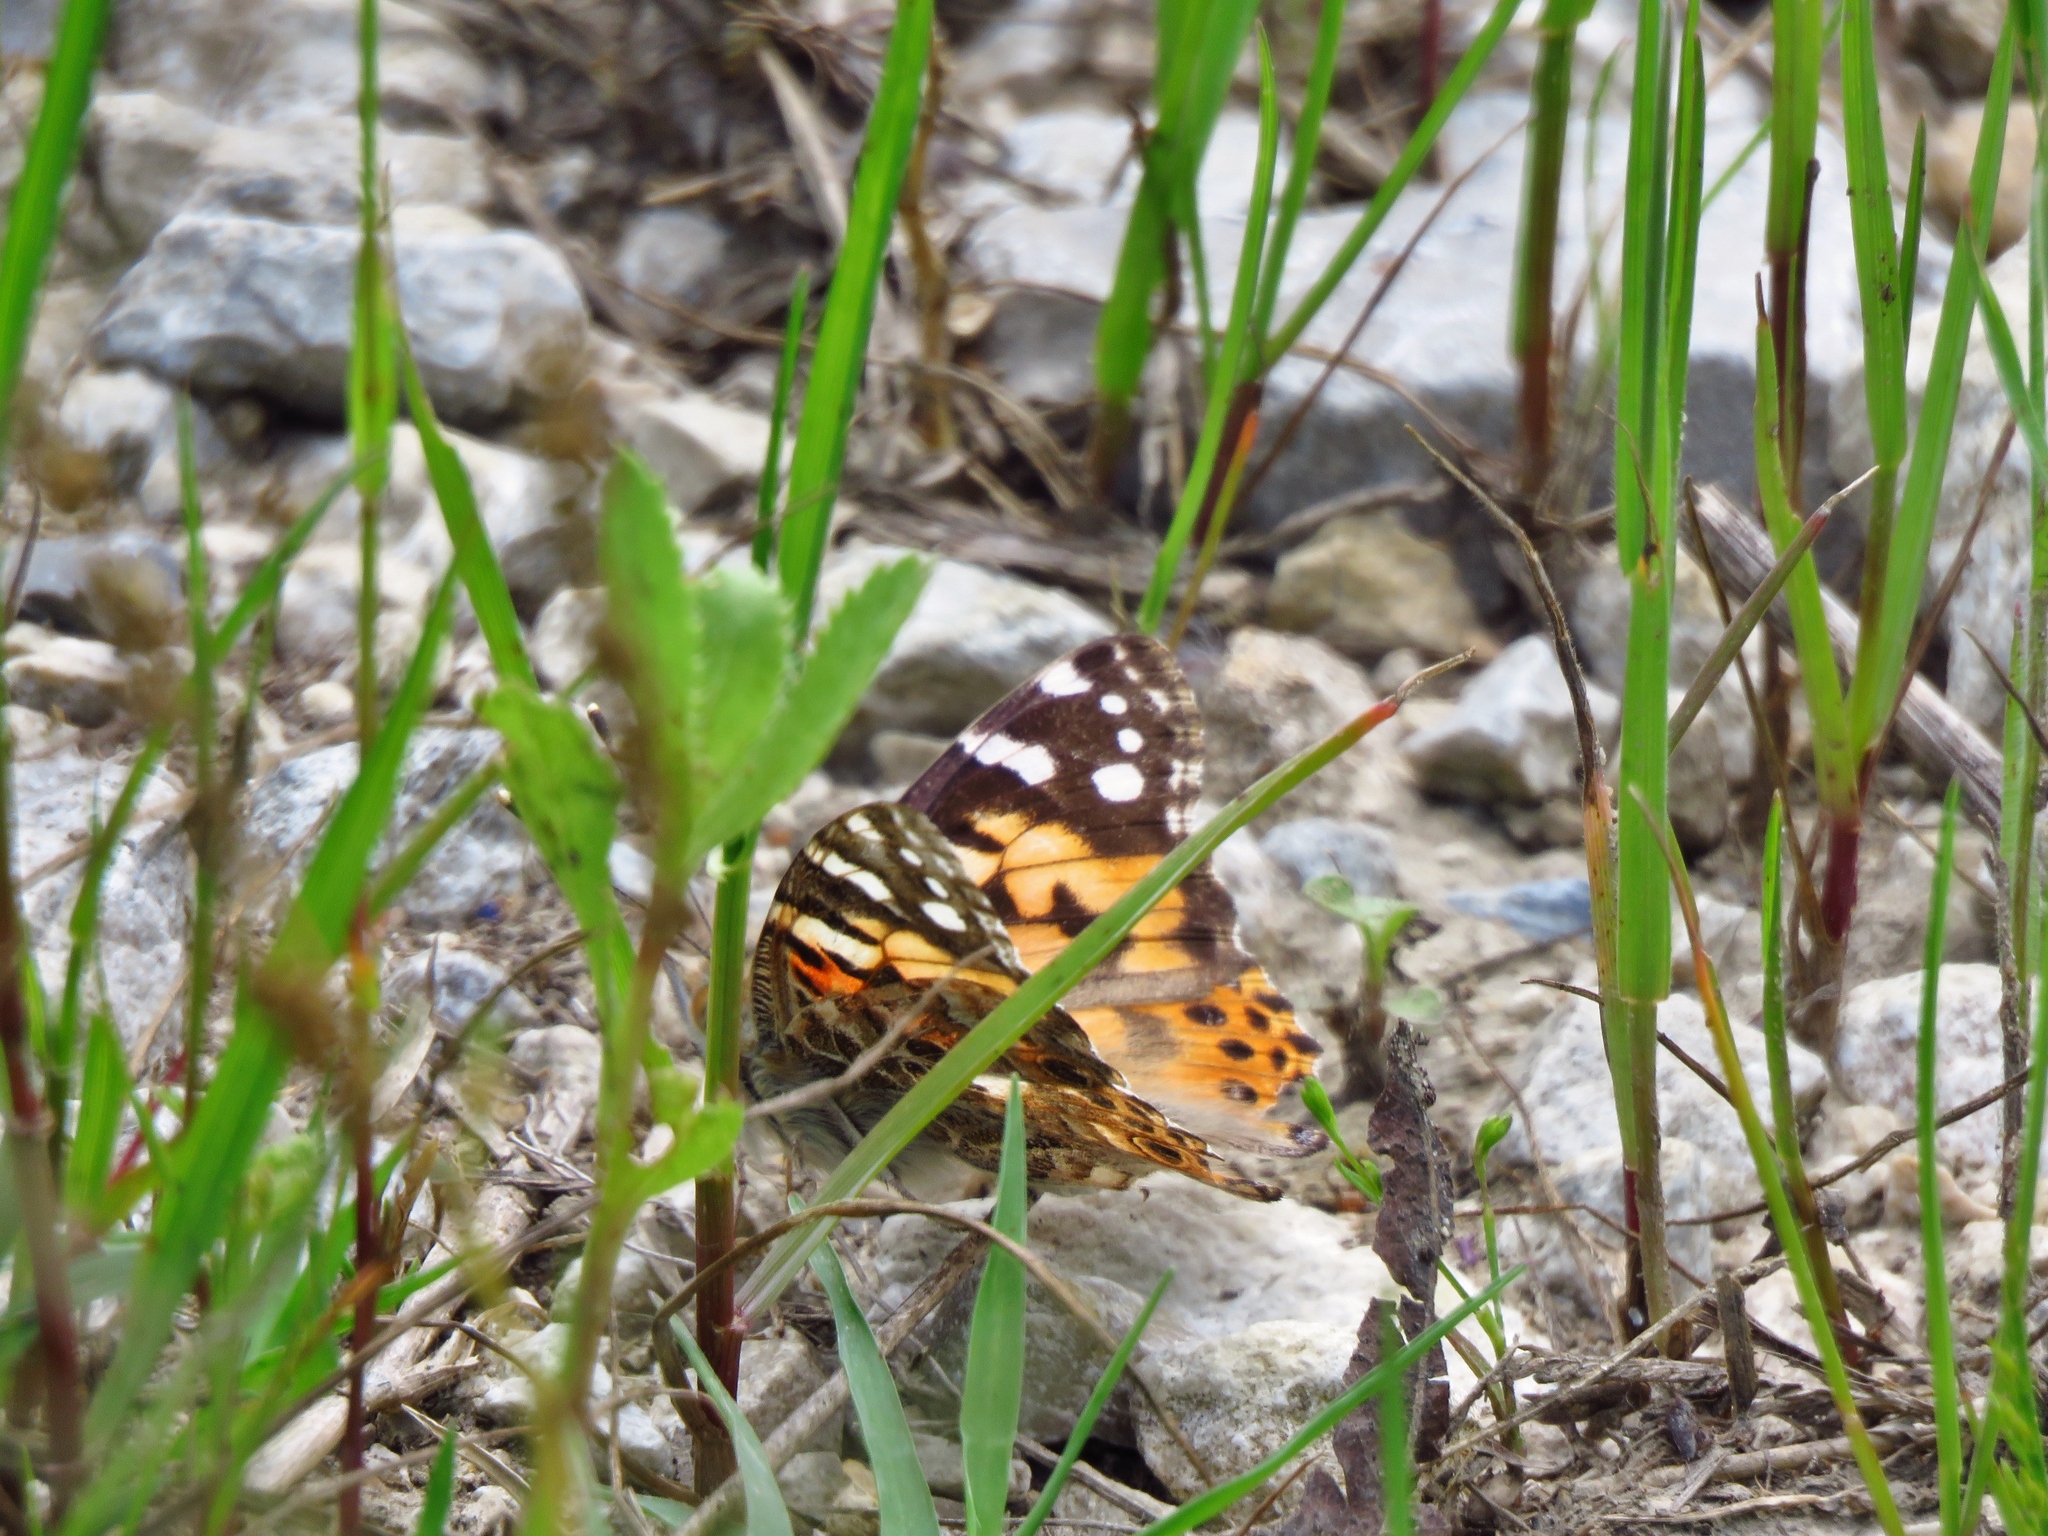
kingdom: Animalia
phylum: Arthropoda
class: Insecta
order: Lepidoptera
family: Nymphalidae
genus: Vanessa
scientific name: Vanessa cardui
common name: Painted lady
